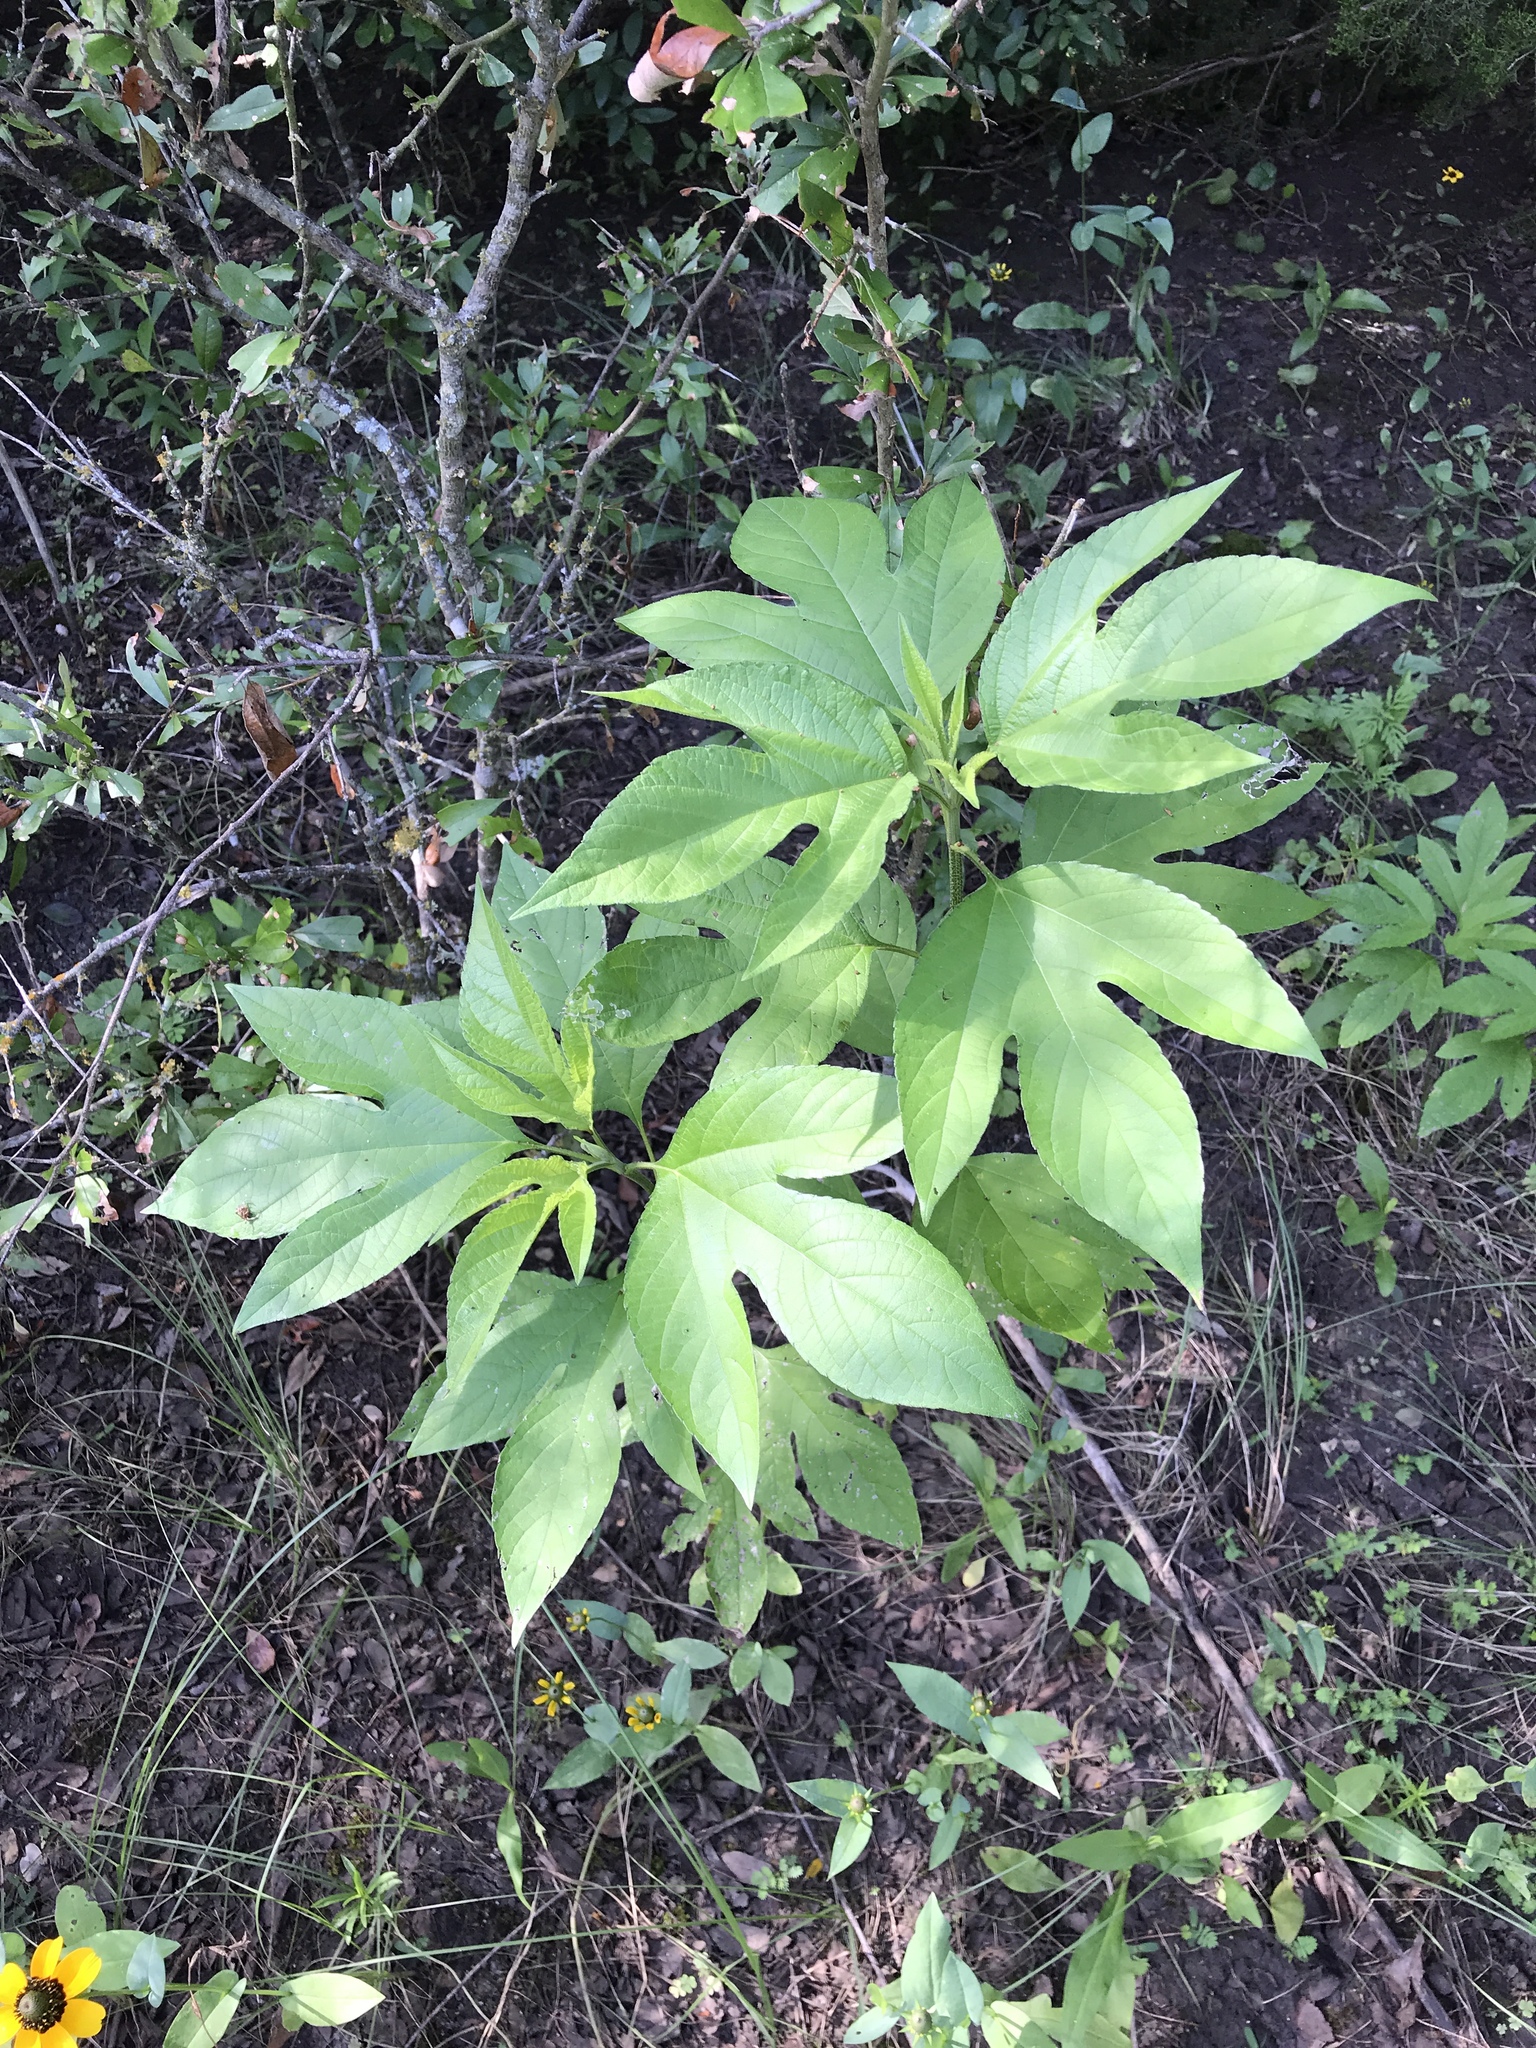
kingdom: Plantae
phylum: Tracheophyta
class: Magnoliopsida
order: Asterales
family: Asteraceae
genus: Ambrosia
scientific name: Ambrosia trifida
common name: Giant ragweed
